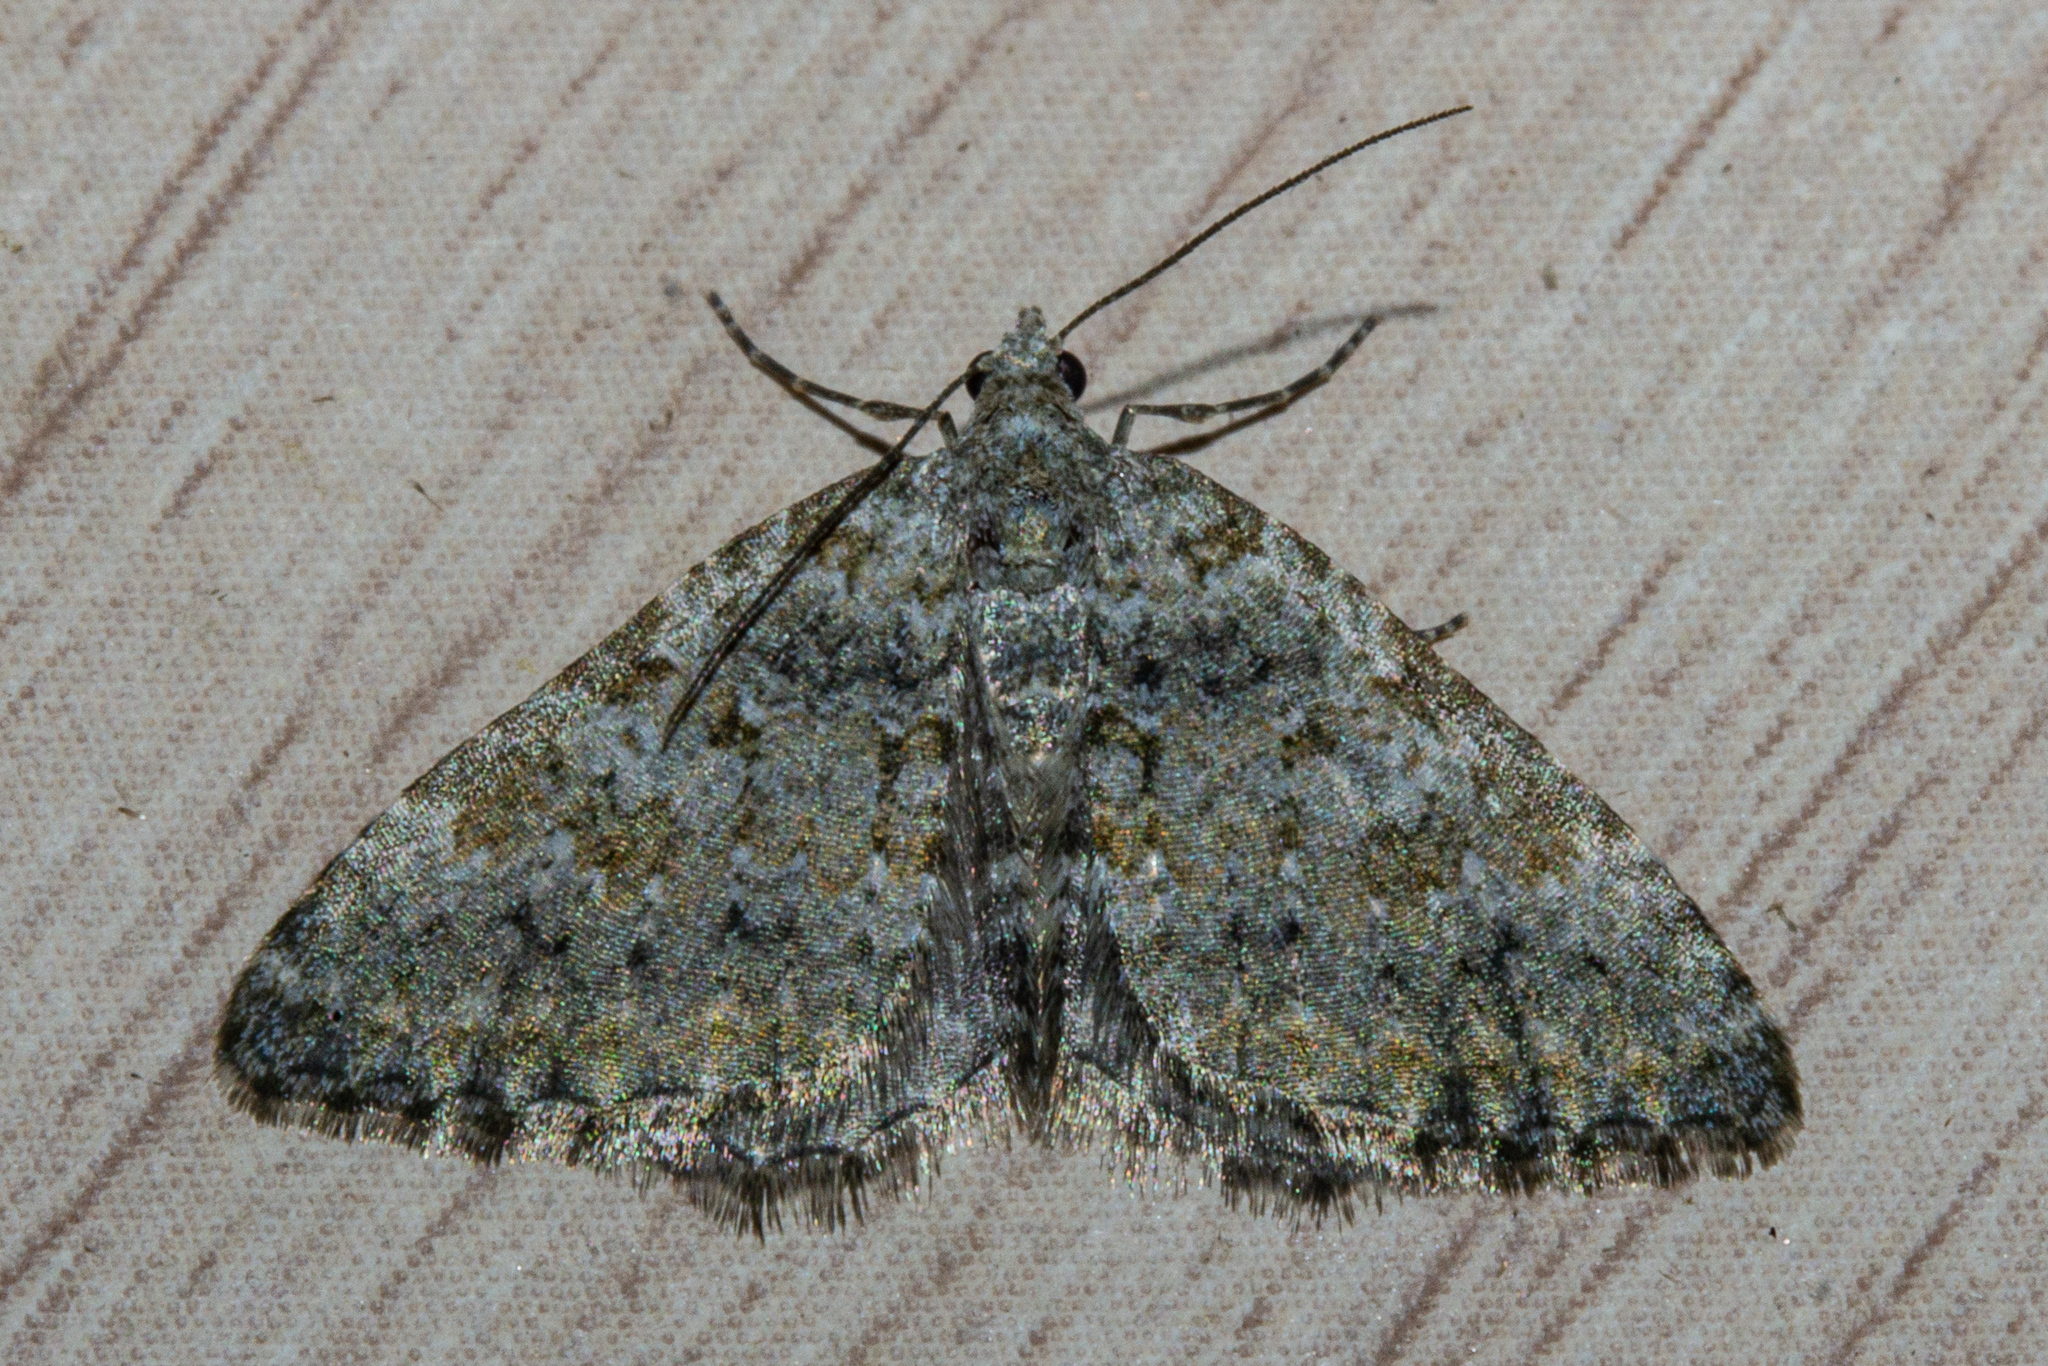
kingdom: Animalia
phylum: Arthropoda
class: Insecta
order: Lepidoptera
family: Geometridae
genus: Helastia
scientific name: Helastia plumbea
